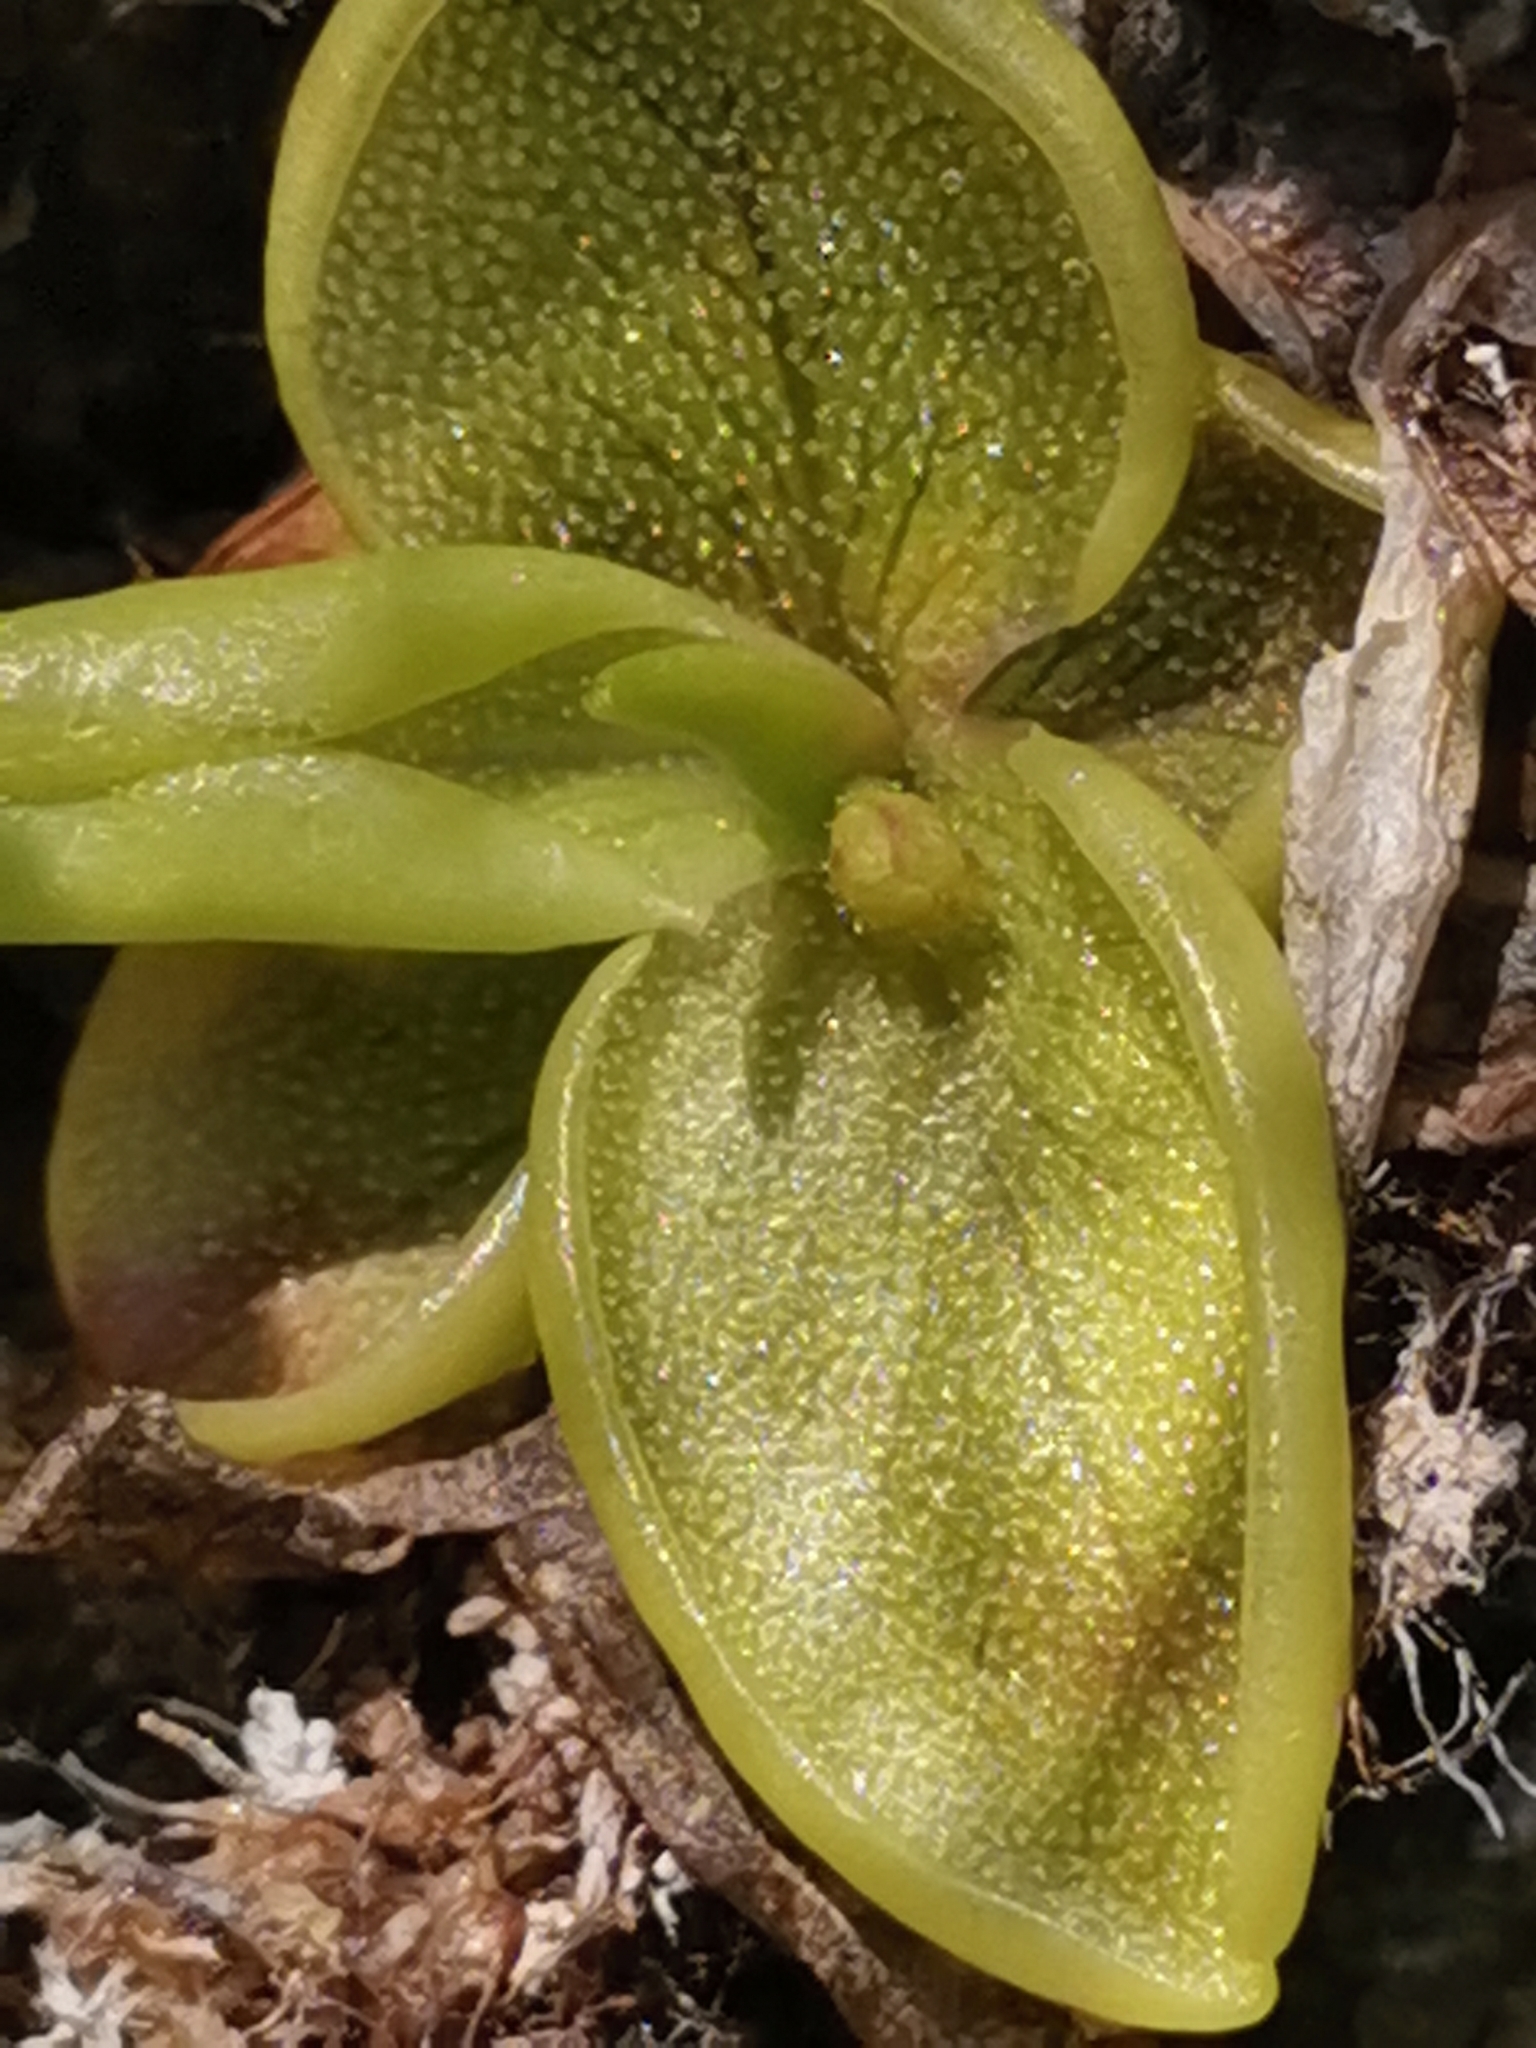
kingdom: Plantae
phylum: Tracheophyta
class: Magnoliopsida
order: Lamiales
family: Lentibulariaceae
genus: Pinguicula
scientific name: Pinguicula crystallina
